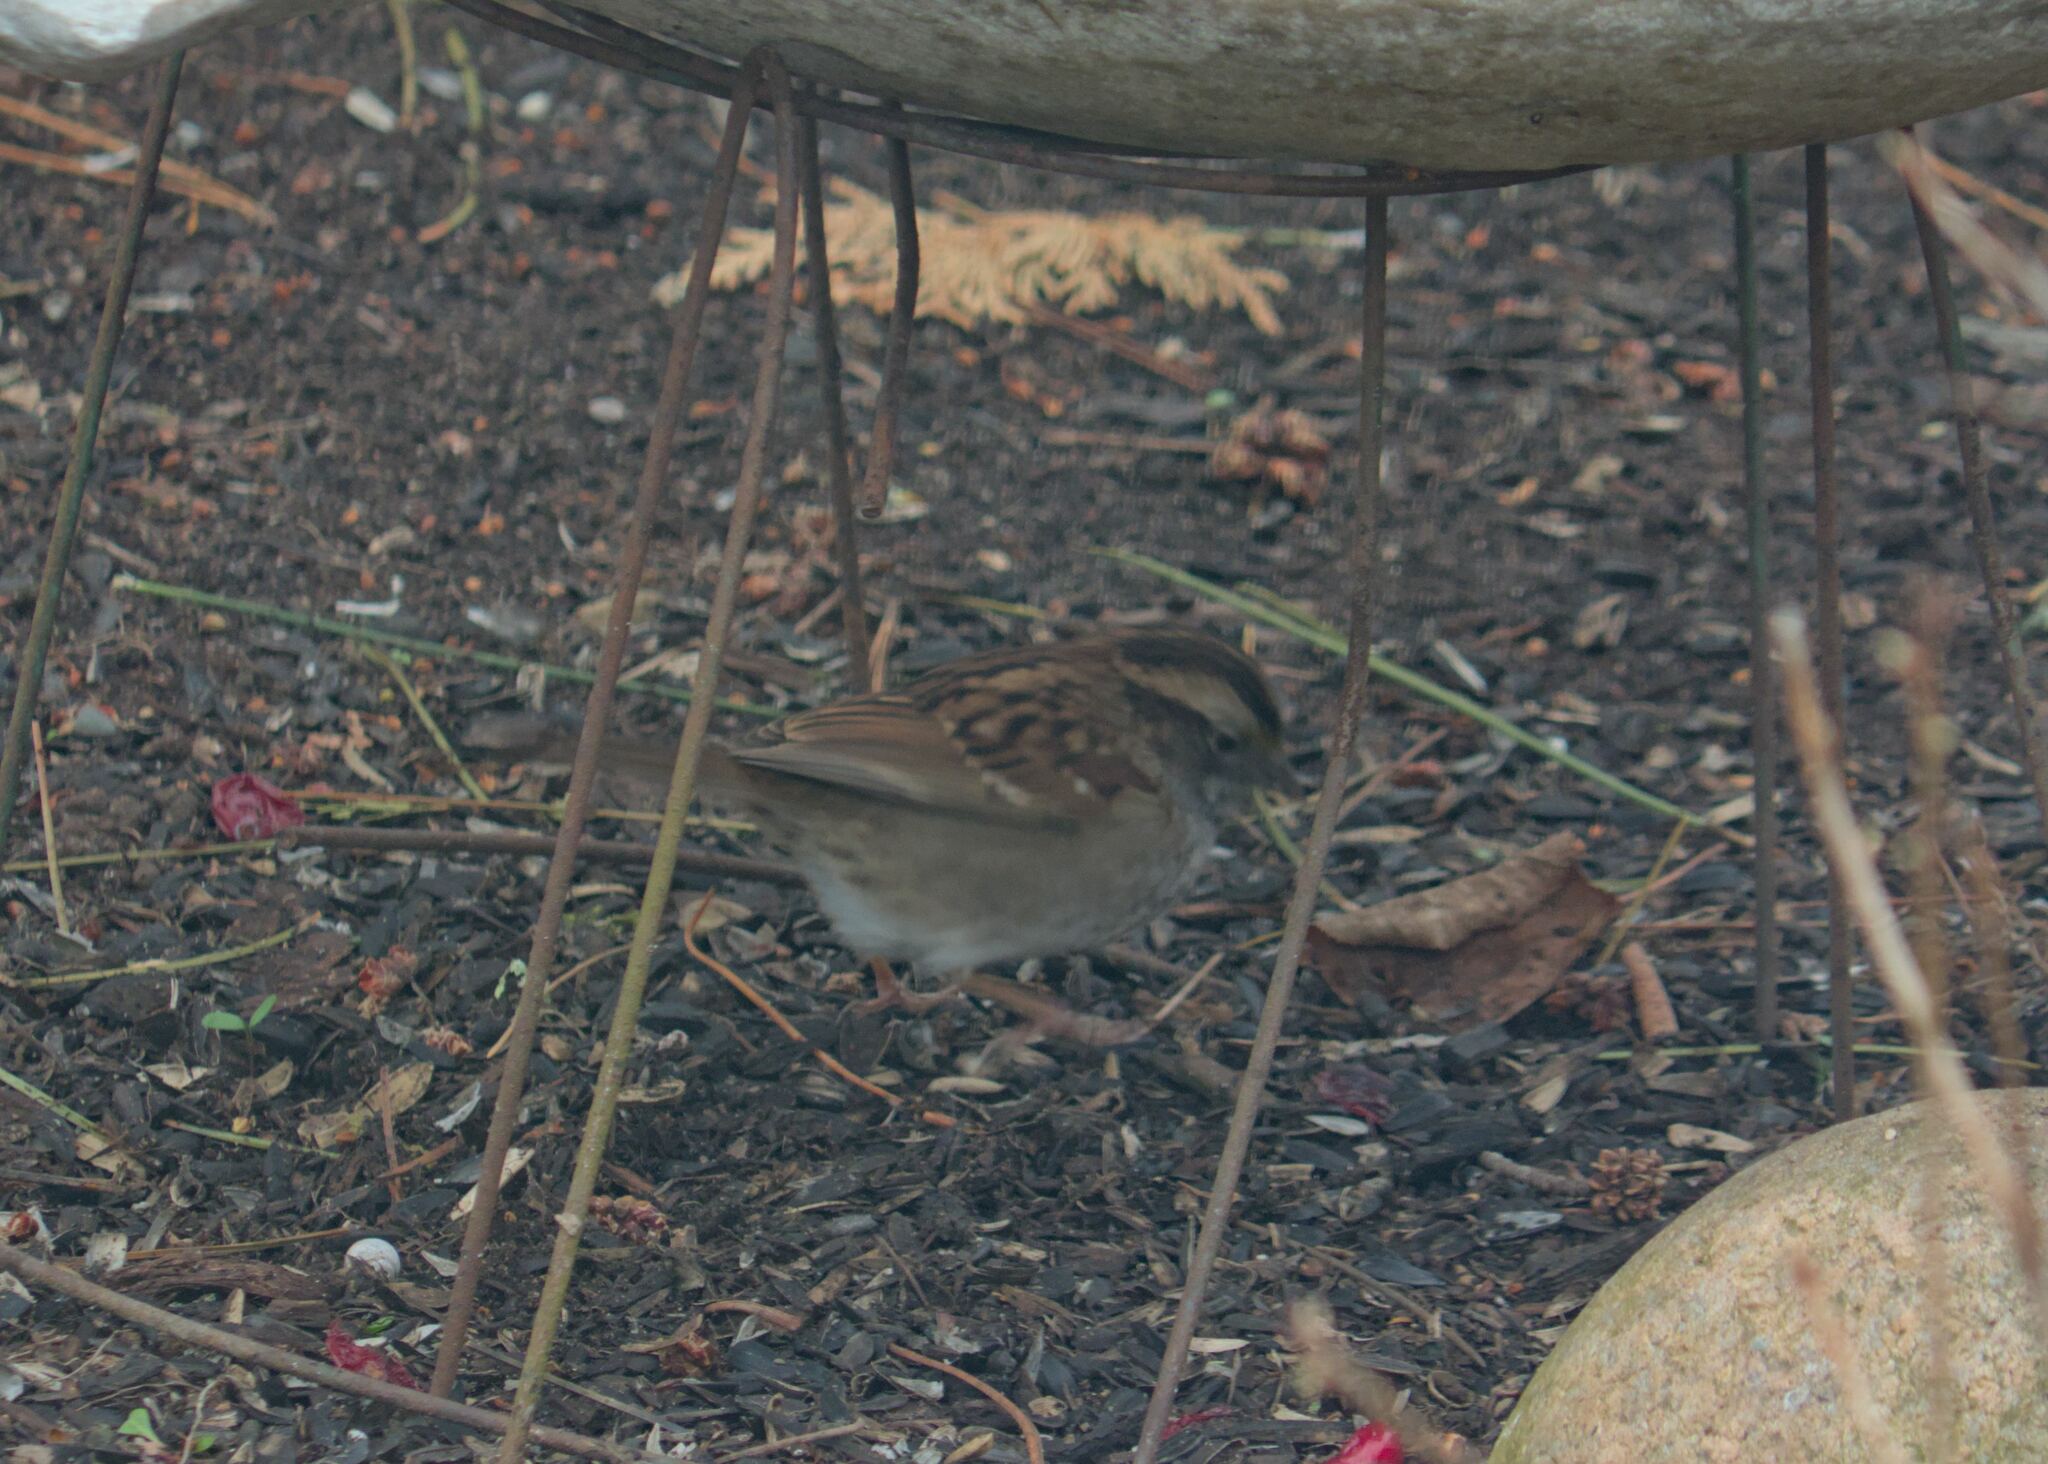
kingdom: Animalia
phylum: Chordata
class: Aves
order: Passeriformes
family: Passerellidae
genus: Zonotrichia
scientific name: Zonotrichia albicollis
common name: White-throated sparrow
